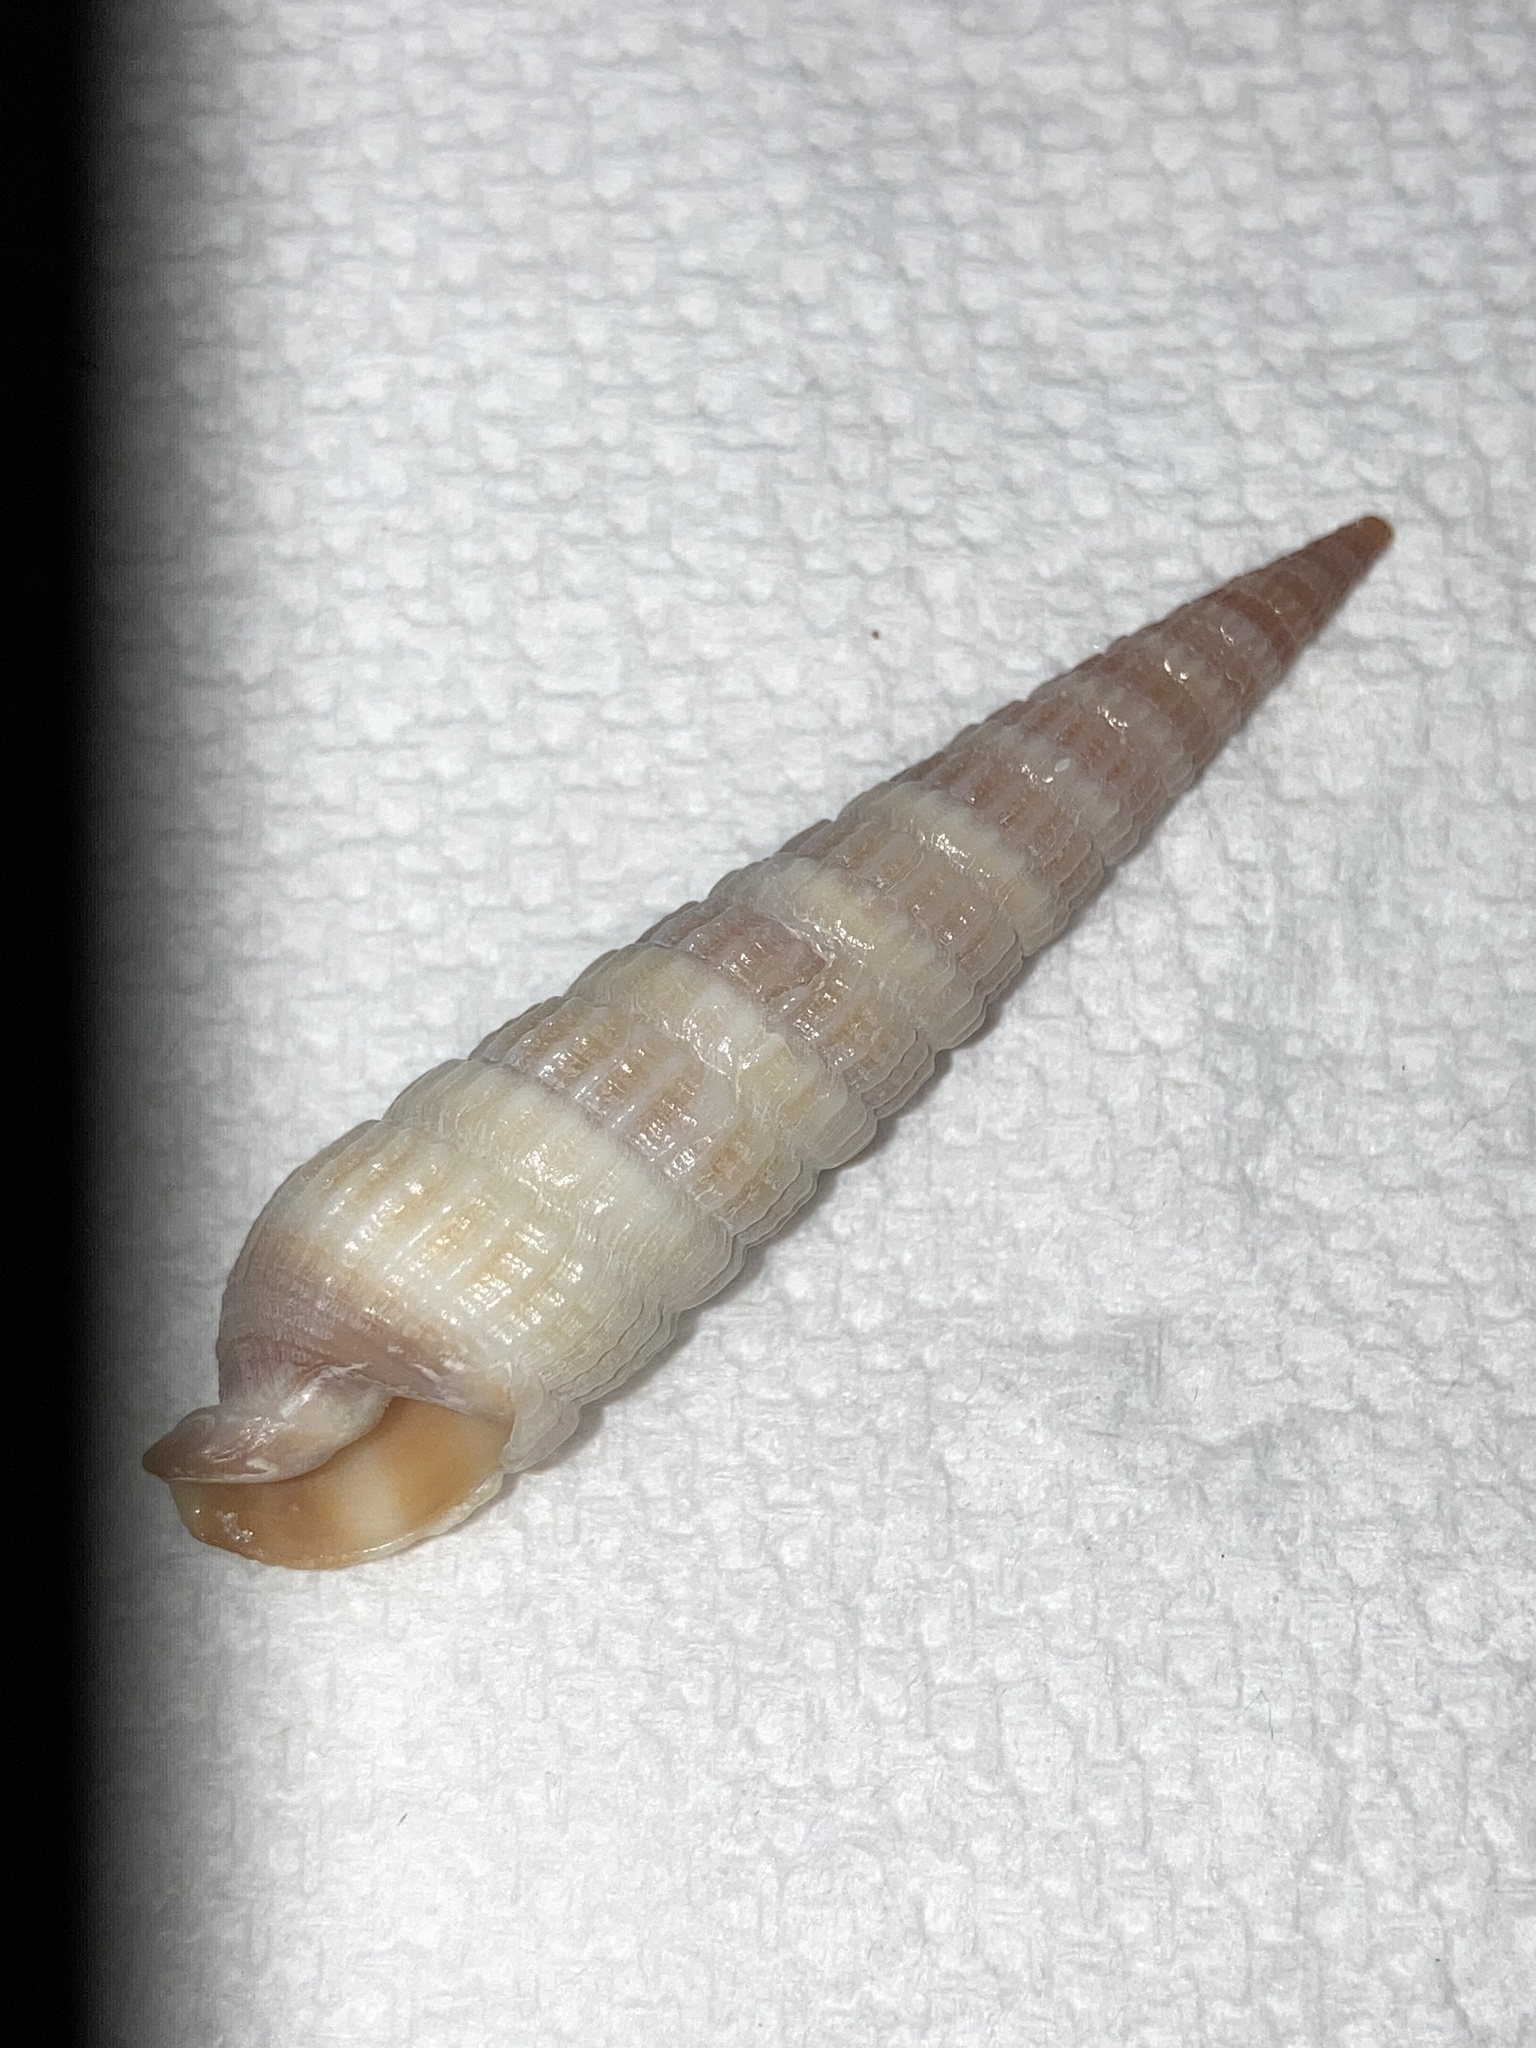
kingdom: Animalia
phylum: Mollusca
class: Gastropoda
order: Neogastropoda
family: Terebridae
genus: Neoterebra
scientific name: Neoterebra dislocata
